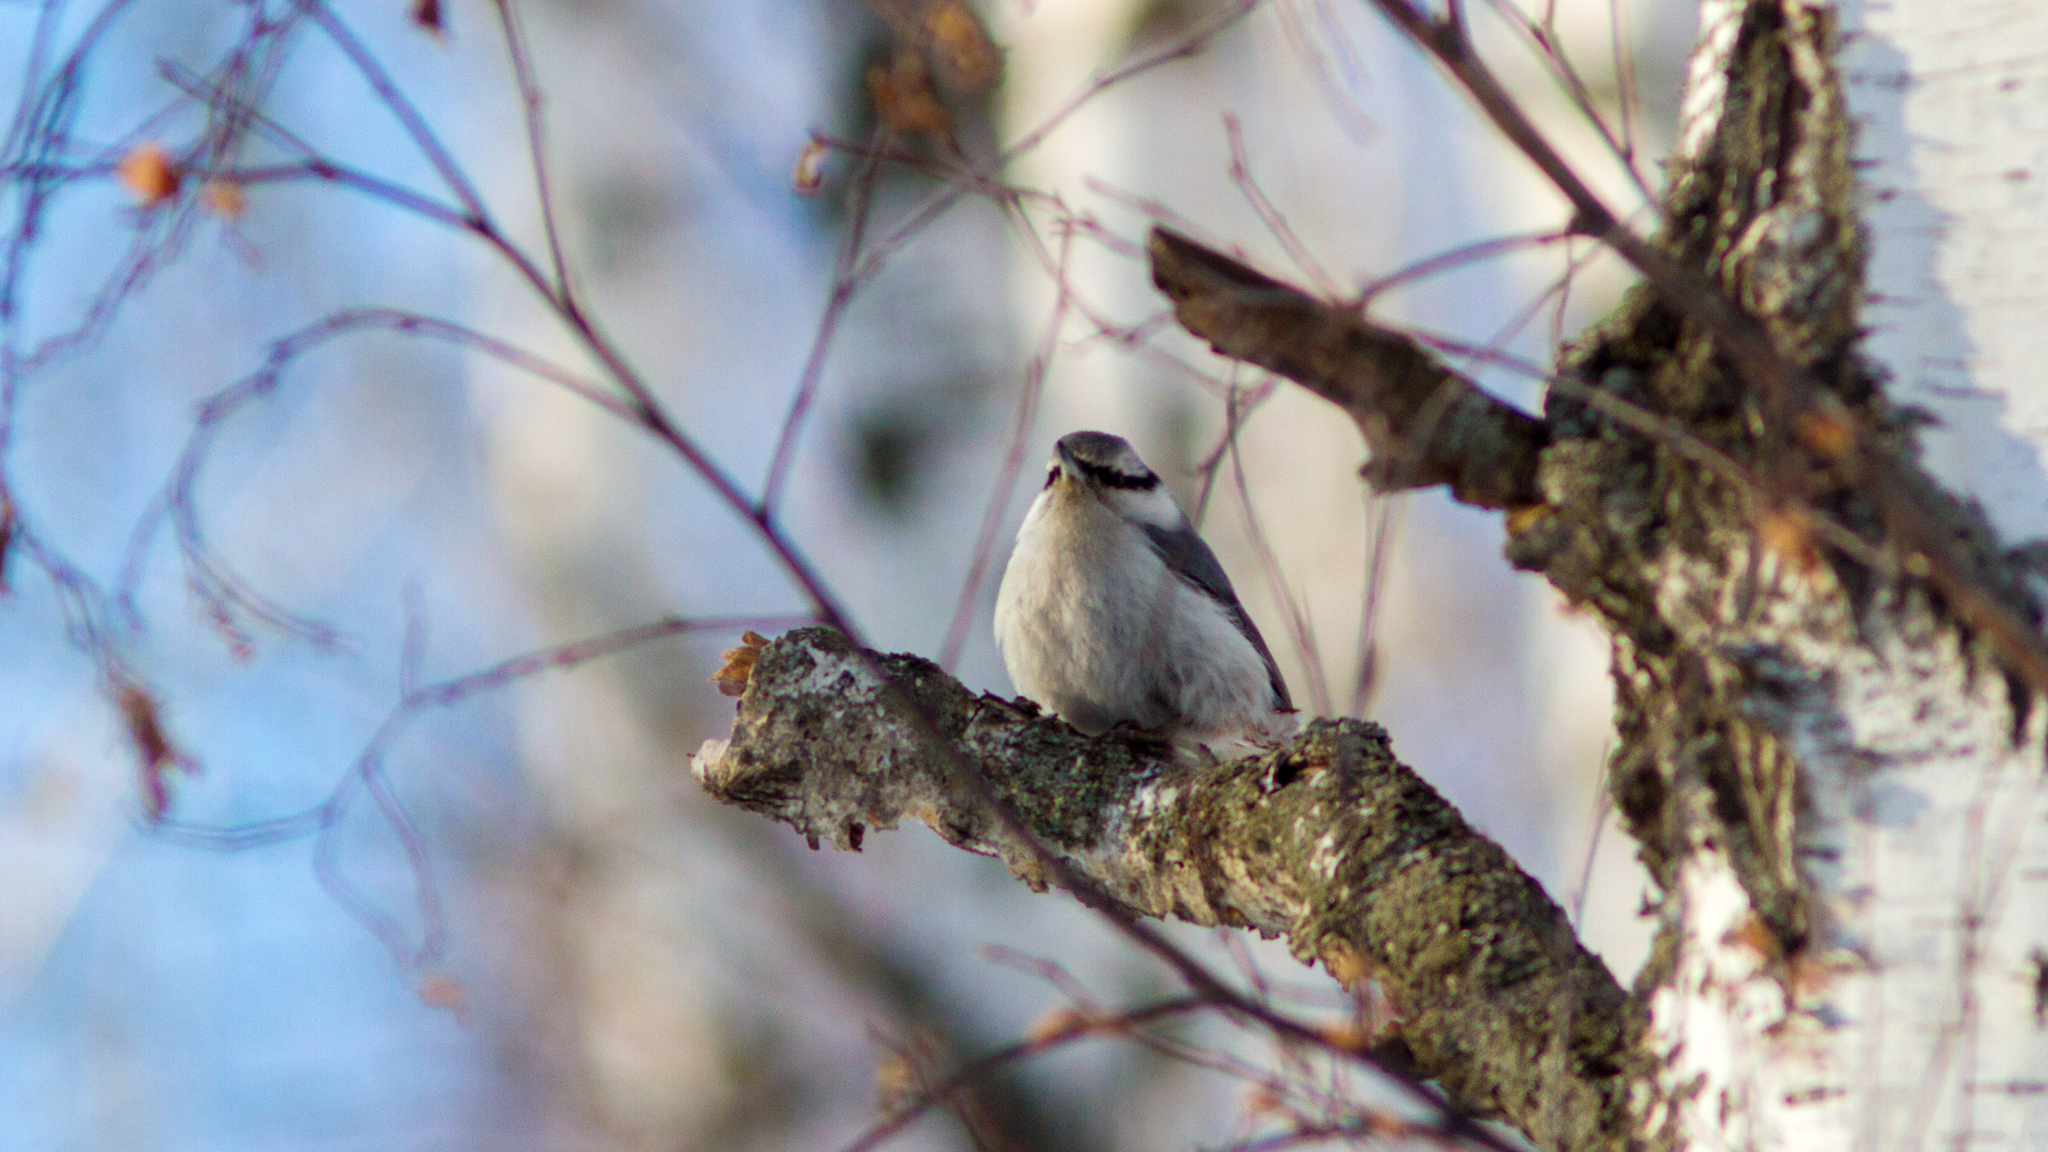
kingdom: Animalia
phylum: Chordata
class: Aves
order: Passeriformes
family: Sittidae
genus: Sitta
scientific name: Sitta europaea
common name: Eurasian nuthatch
